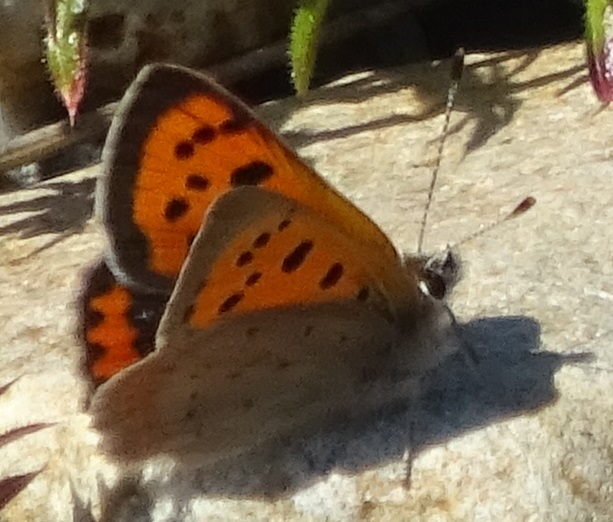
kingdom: Animalia
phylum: Arthropoda
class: Insecta
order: Lepidoptera
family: Lycaenidae
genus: Lycaena
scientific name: Lycaena phlaeas
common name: Small copper
